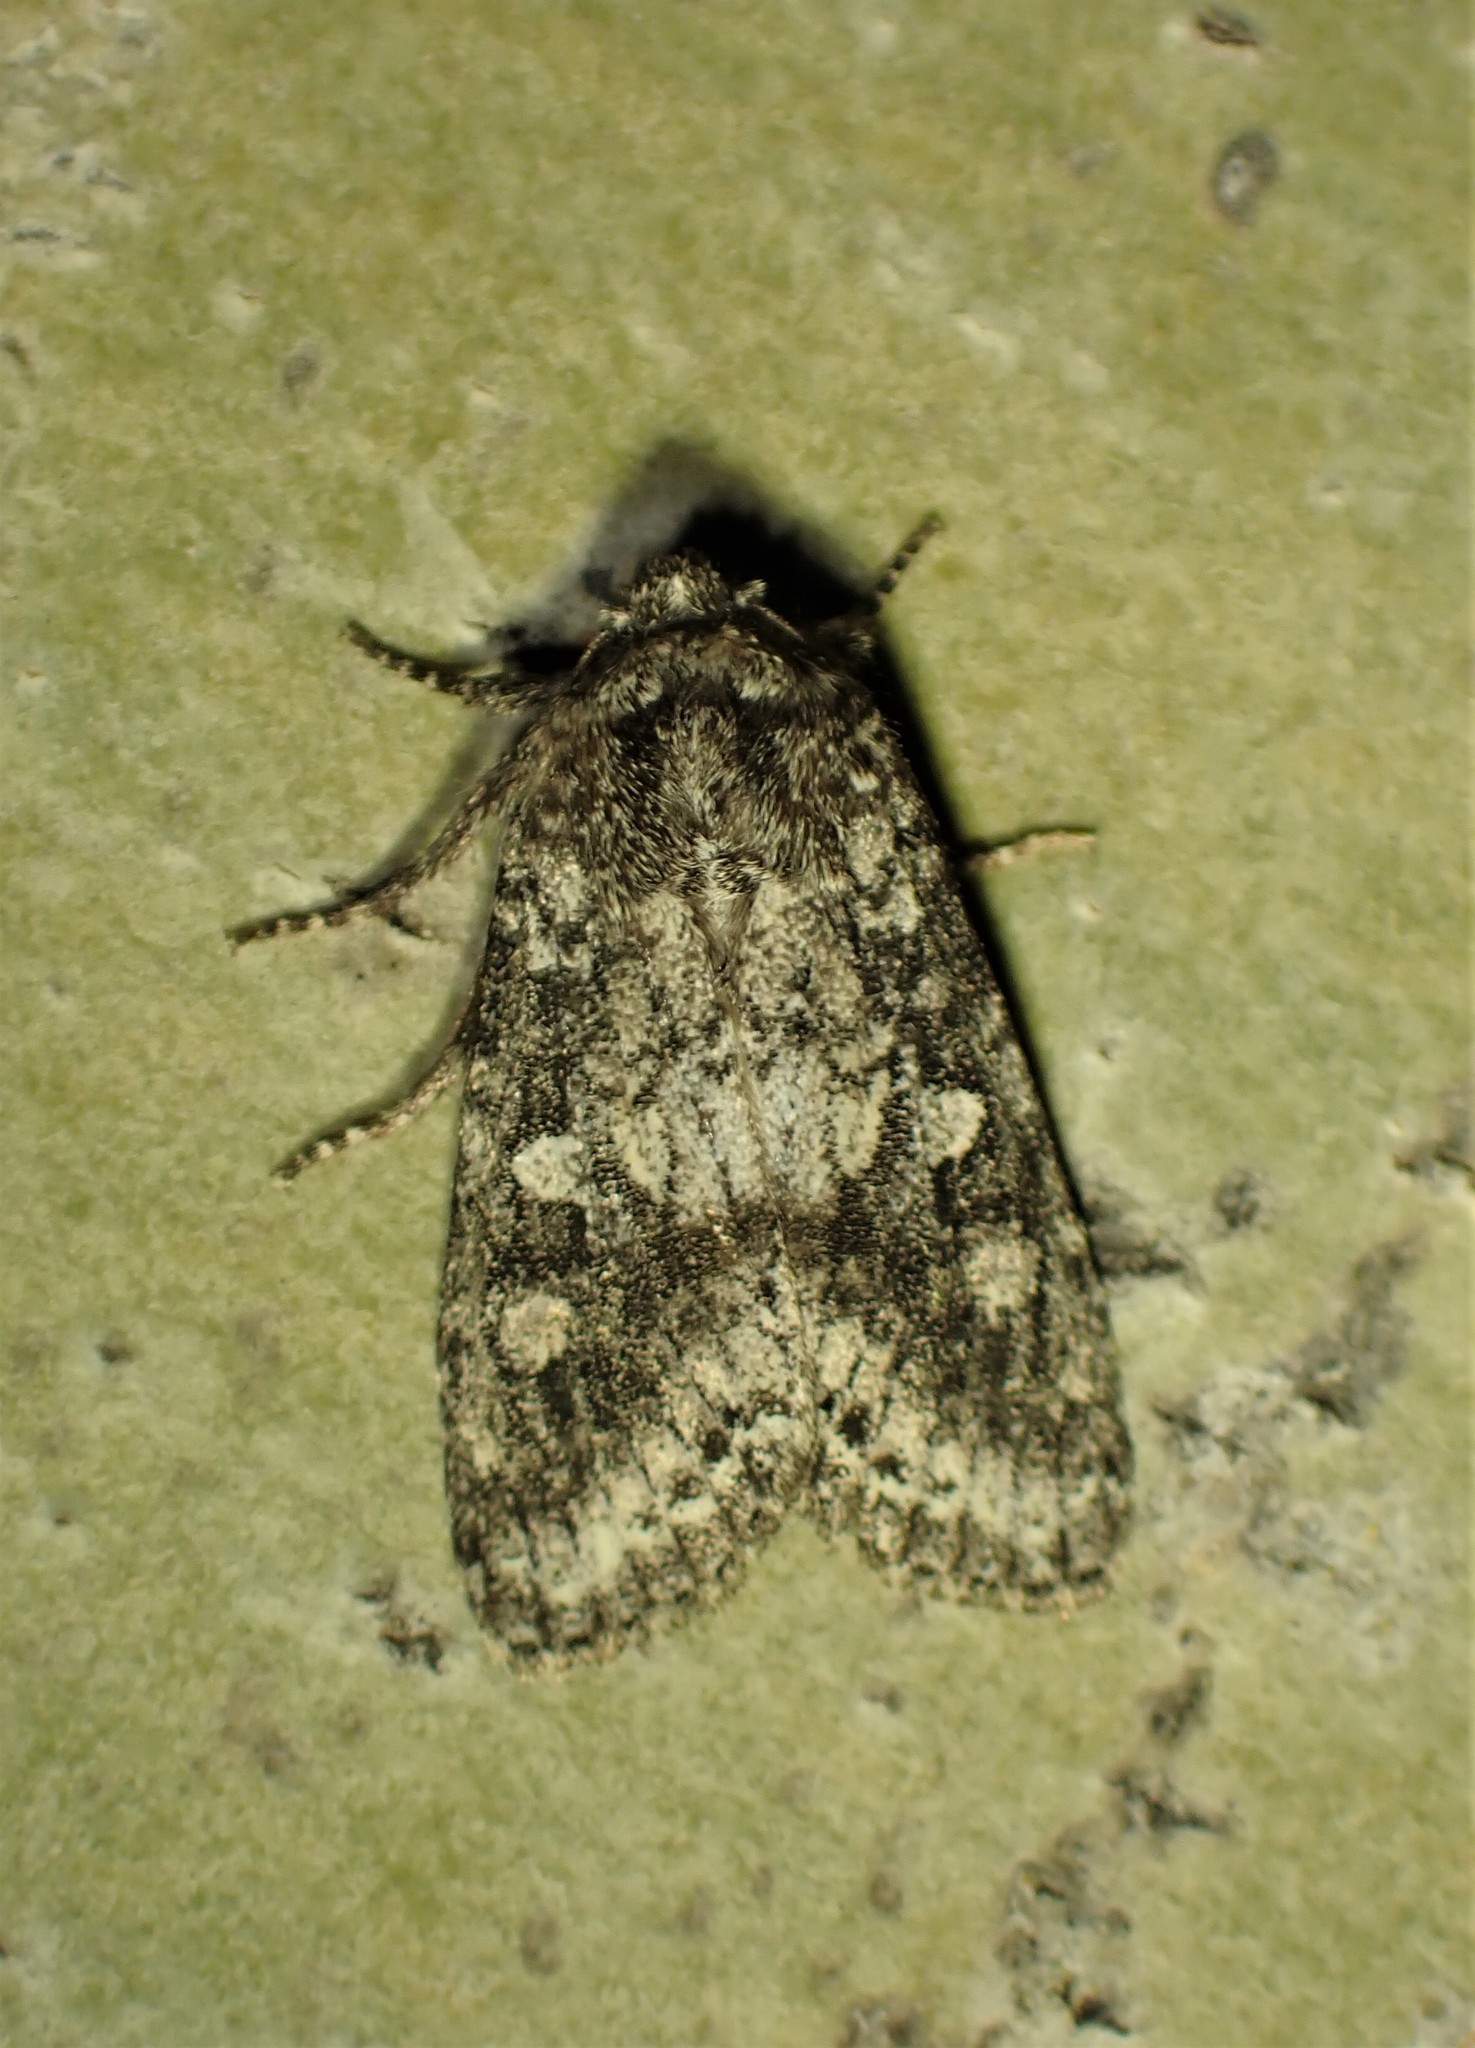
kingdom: Animalia
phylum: Arthropoda
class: Insecta
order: Lepidoptera
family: Noctuidae
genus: Egira
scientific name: Egira dolosa
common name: Lined black aspen cat.
